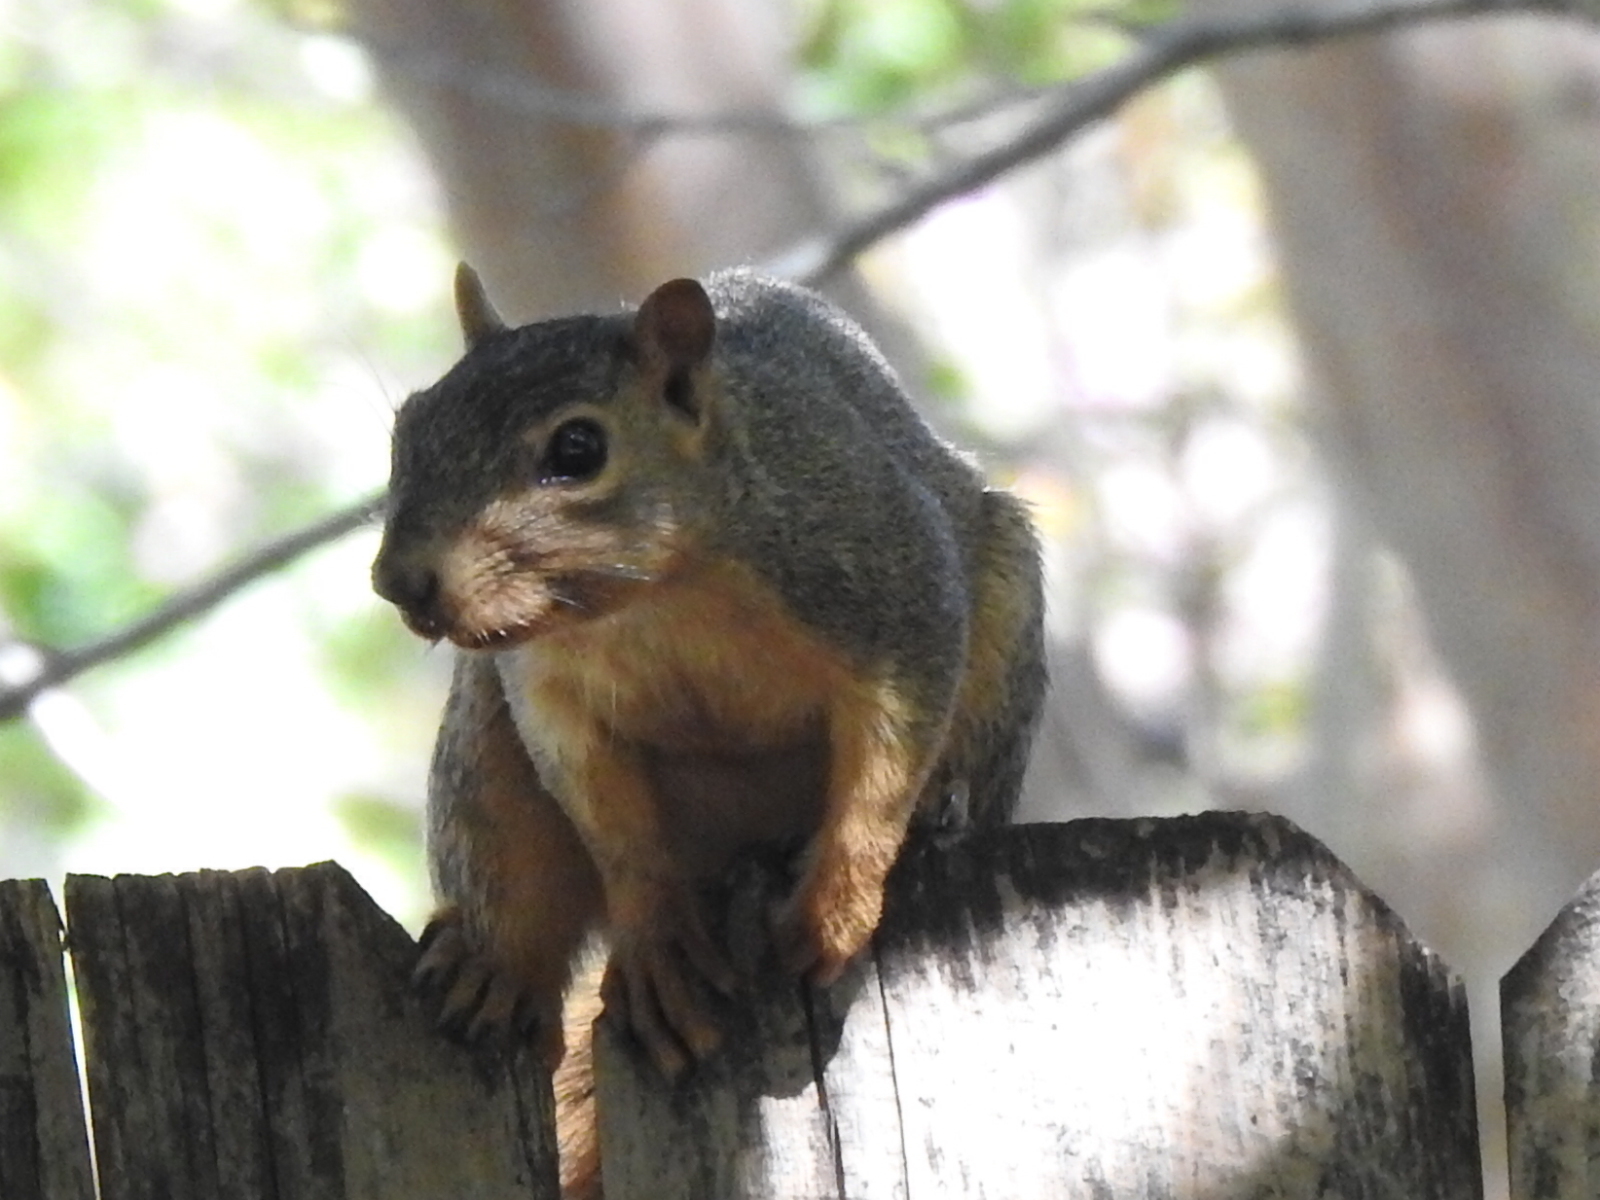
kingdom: Animalia
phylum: Chordata
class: Mammalia
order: Rodentia
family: Sciuridae
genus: Sciurus
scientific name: Sciurus niger
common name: Fox squirrel
